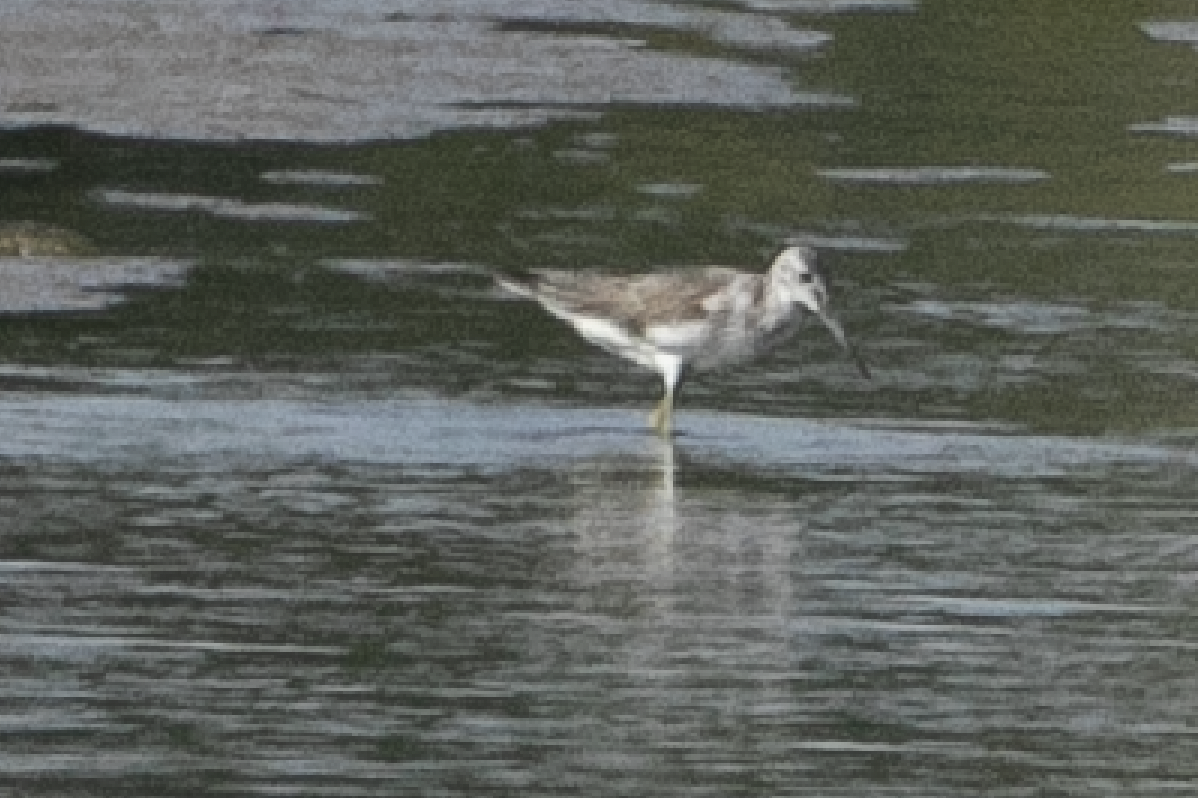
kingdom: Animalia
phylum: Chordata
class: Aves
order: Charadriiformes
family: Scolopacidae
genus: Tringa
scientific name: Tringa nebularia
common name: Common greenshank
